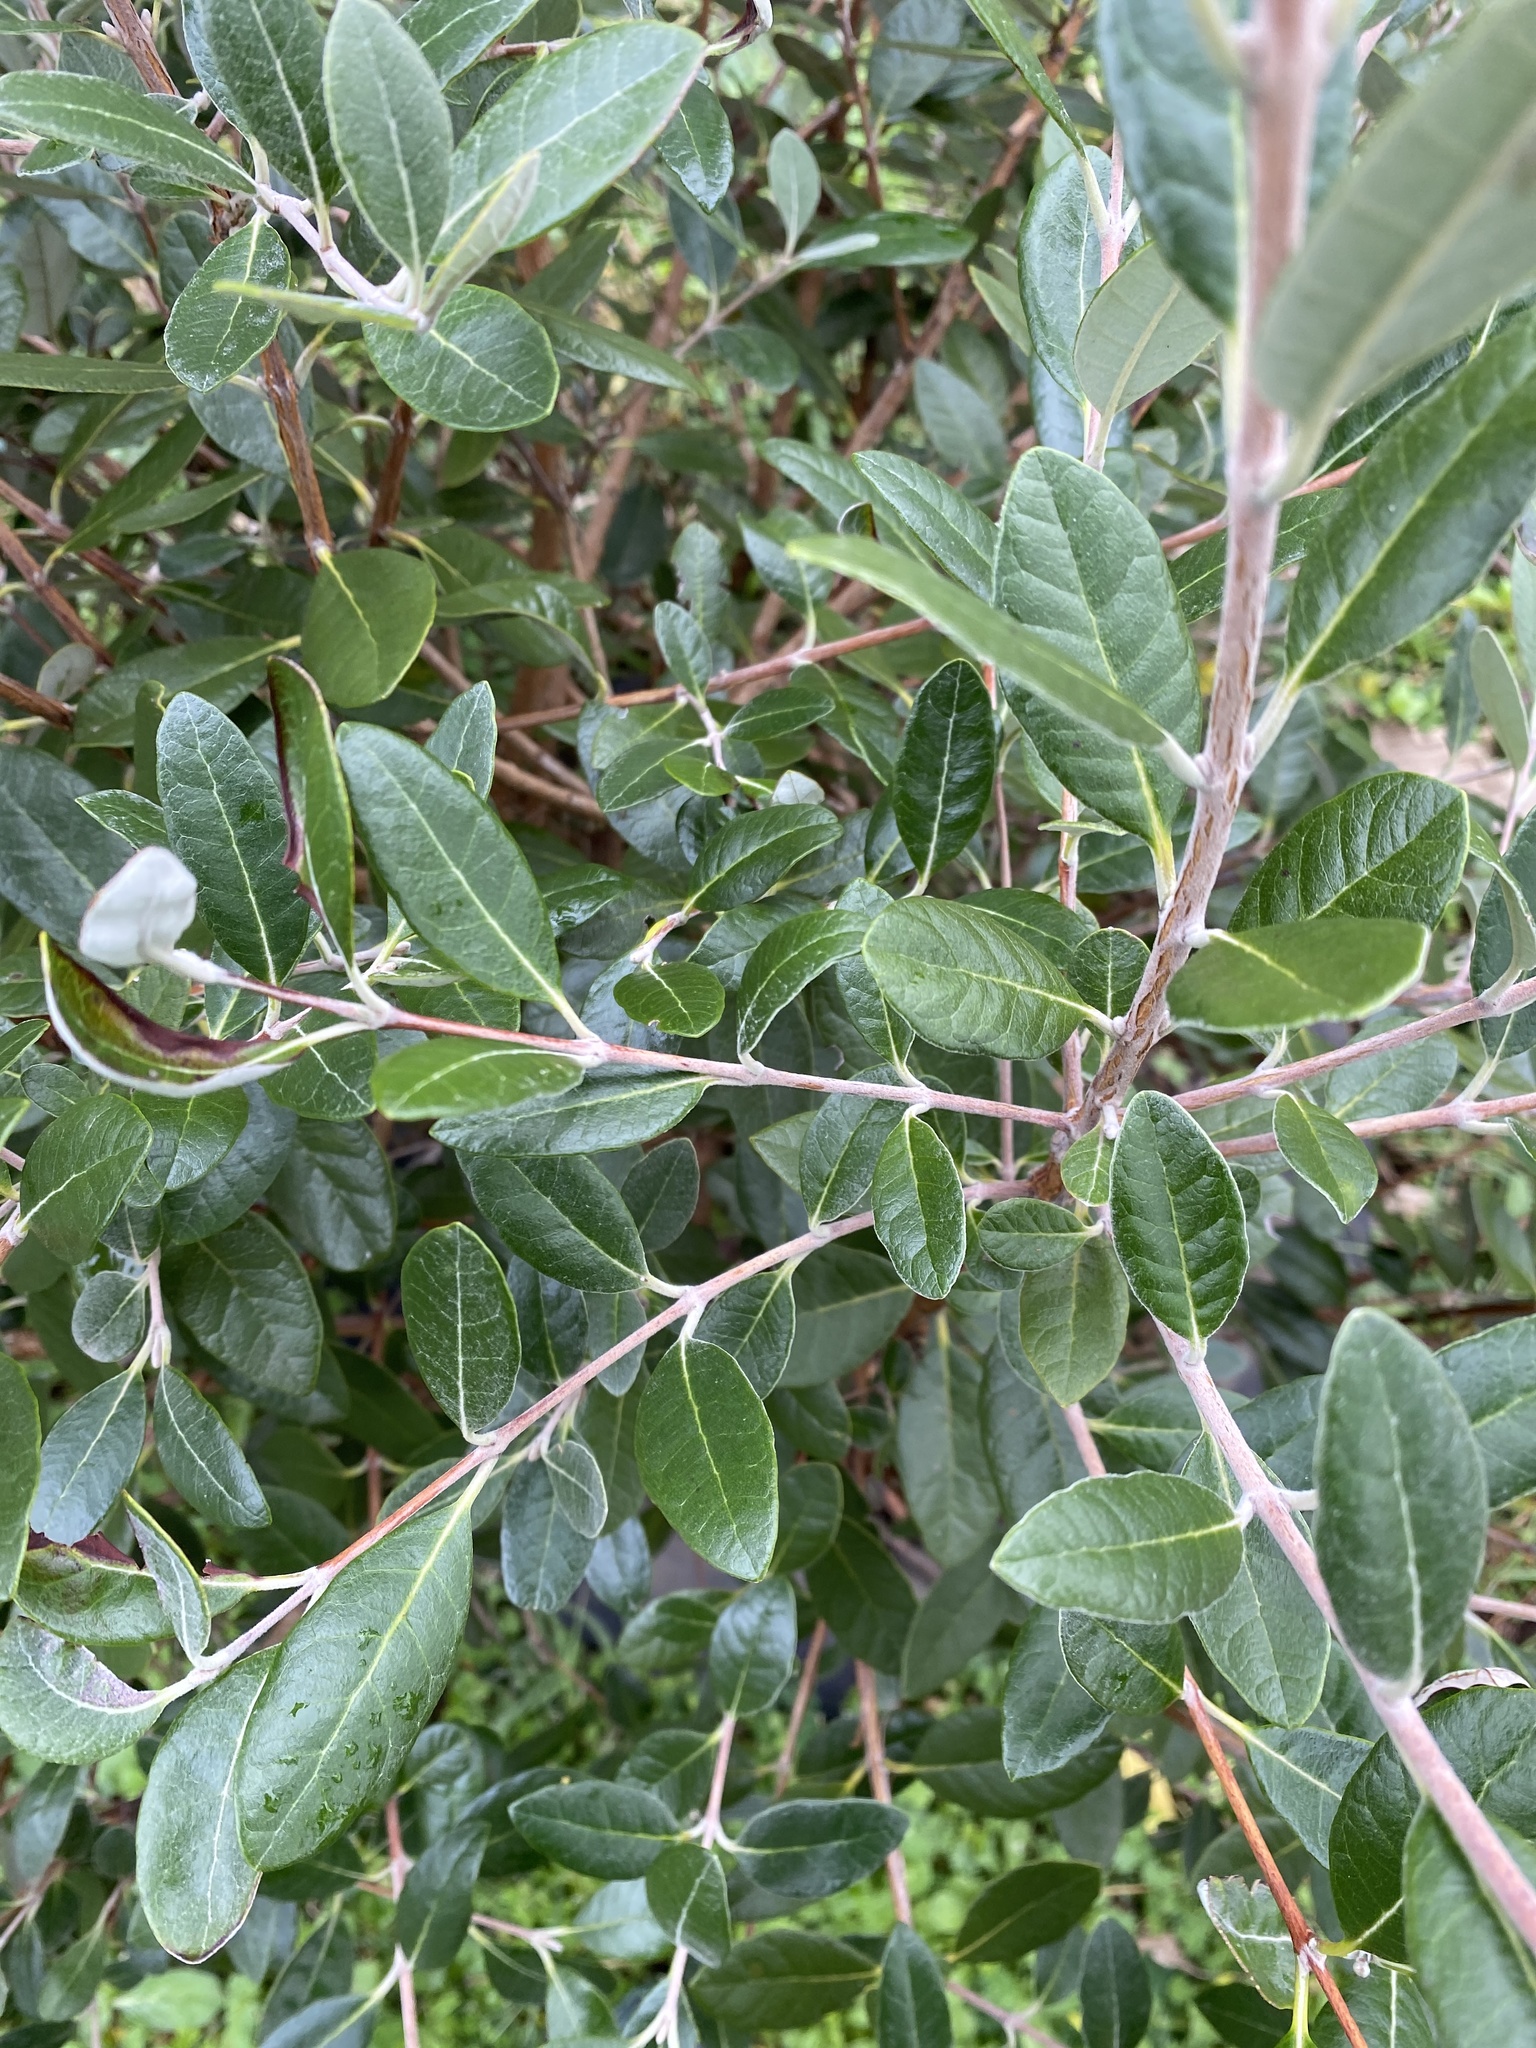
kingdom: Plantae
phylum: Tracheophyta
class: Magnoliopsida
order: Myrtales
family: Myrtaceae
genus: Feijoa
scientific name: Feijoa sellowiana
